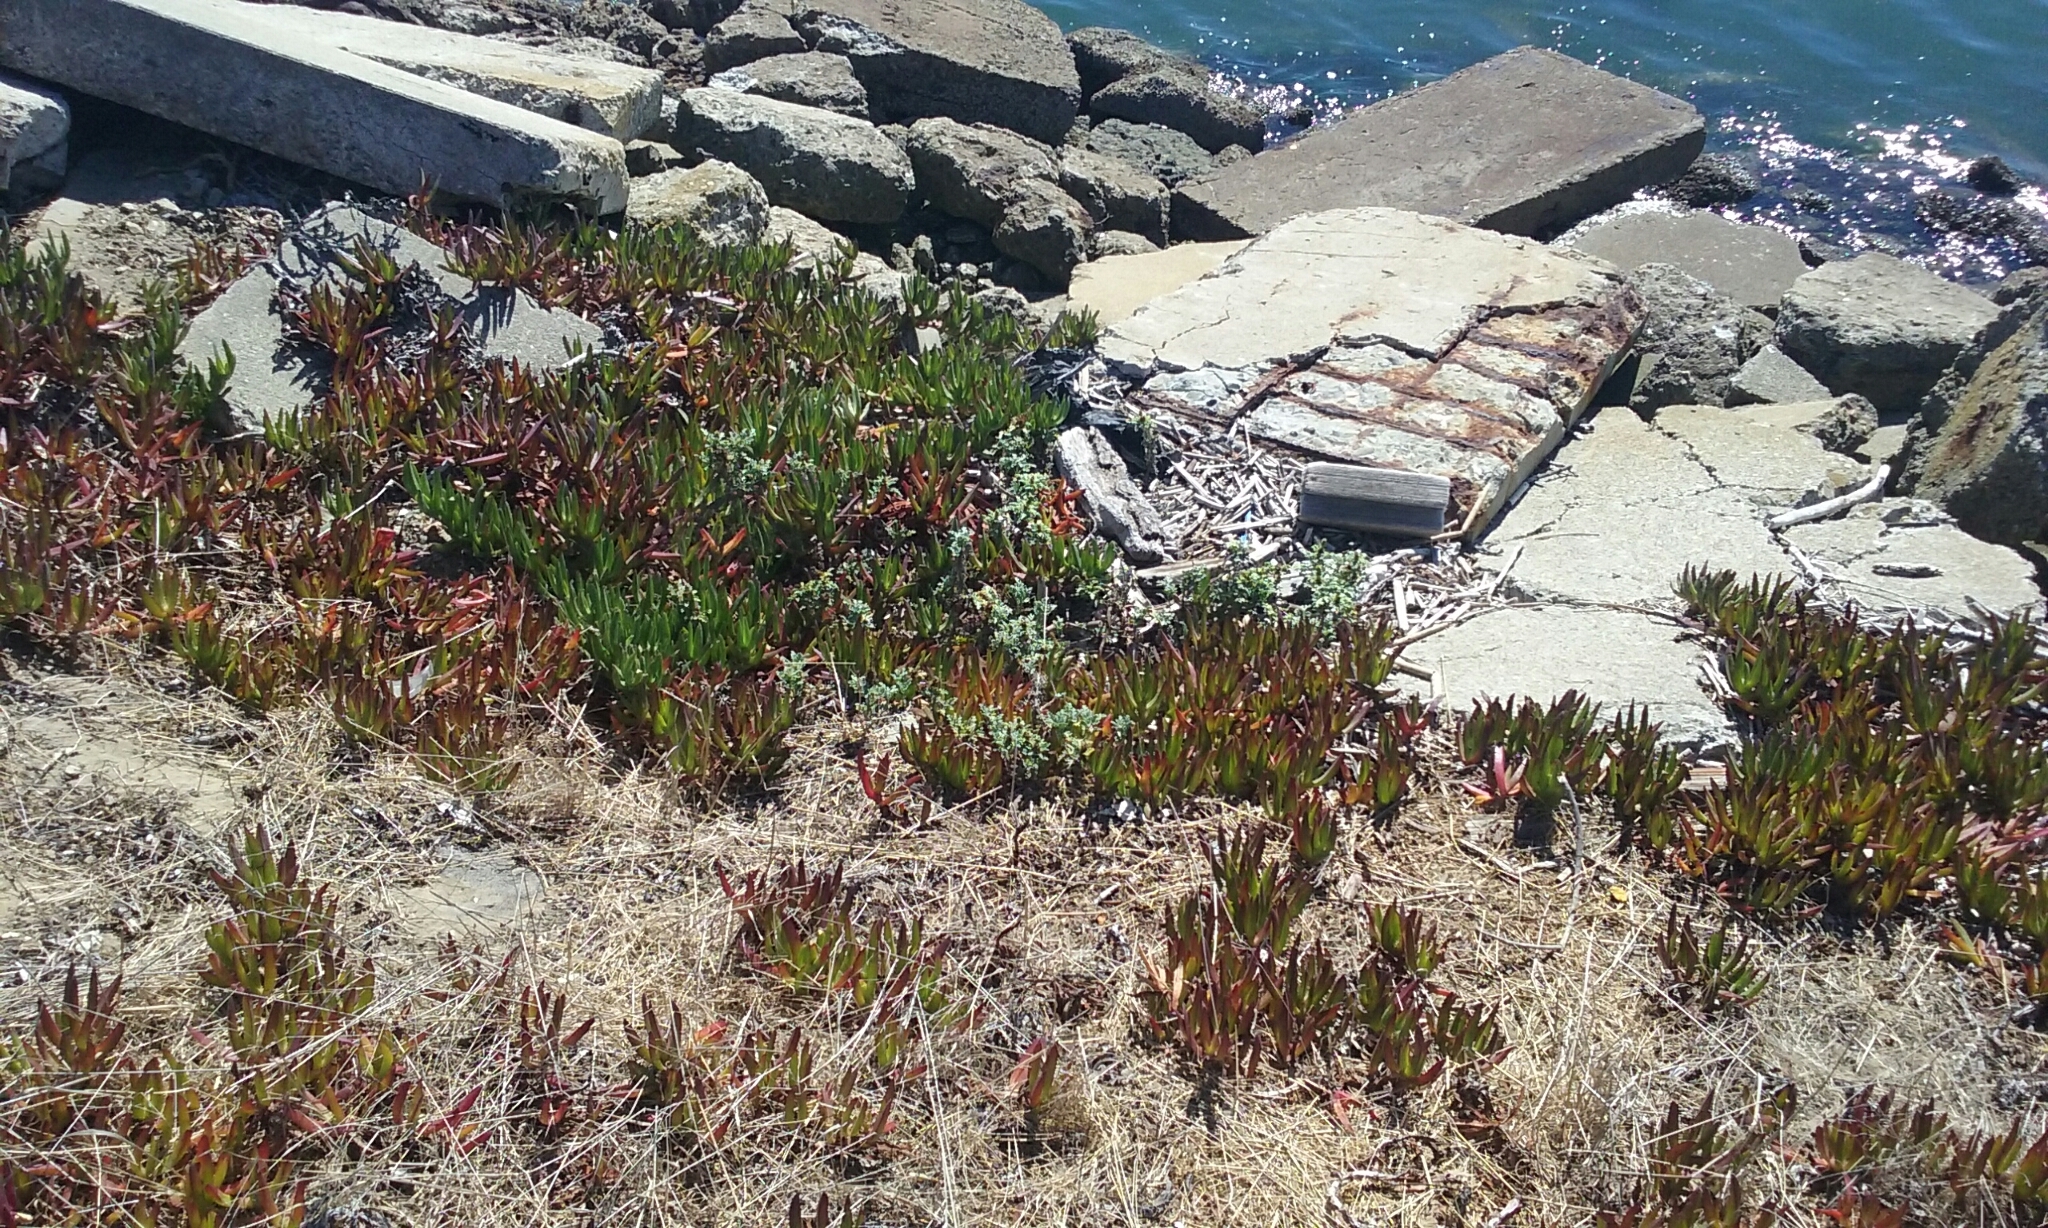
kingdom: Plantae
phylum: Tracheophyta
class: Magnoliopsida
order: Asterales
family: Asteraceae
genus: Ambrosia
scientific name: Ambrosia chamissonis
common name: Beachbur
